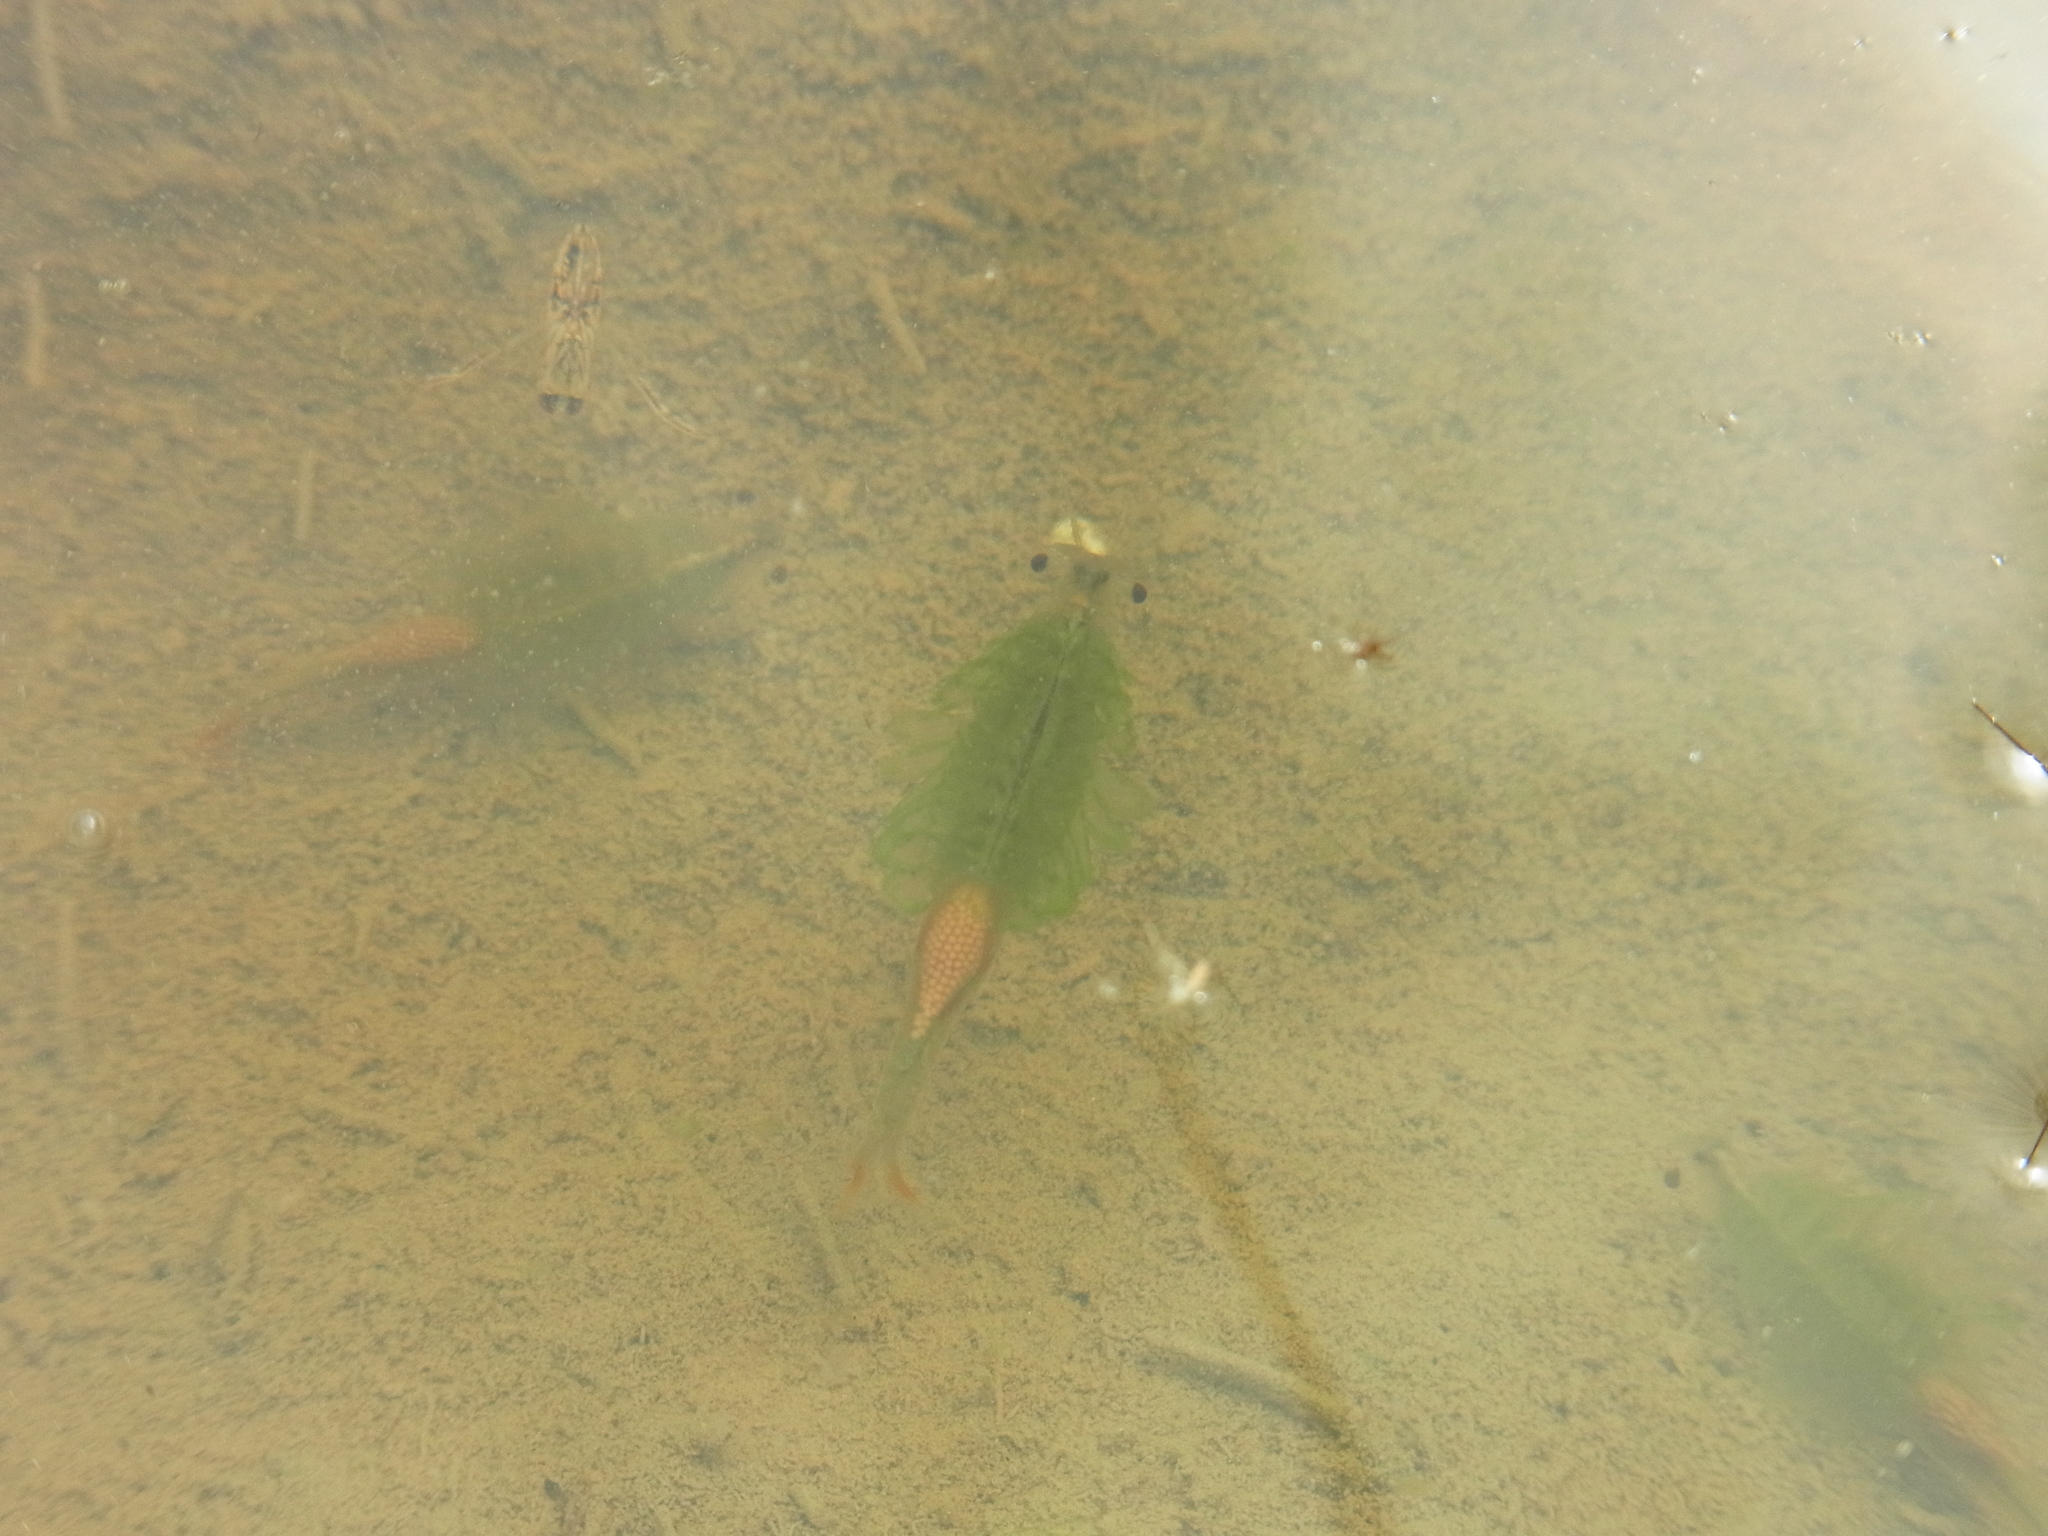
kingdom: Animalia
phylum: Arthropoda
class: Branchiopoda
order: Anostraca
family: Thamnocephalidae
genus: Branchinella
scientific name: Branchinella kugenumaensis
